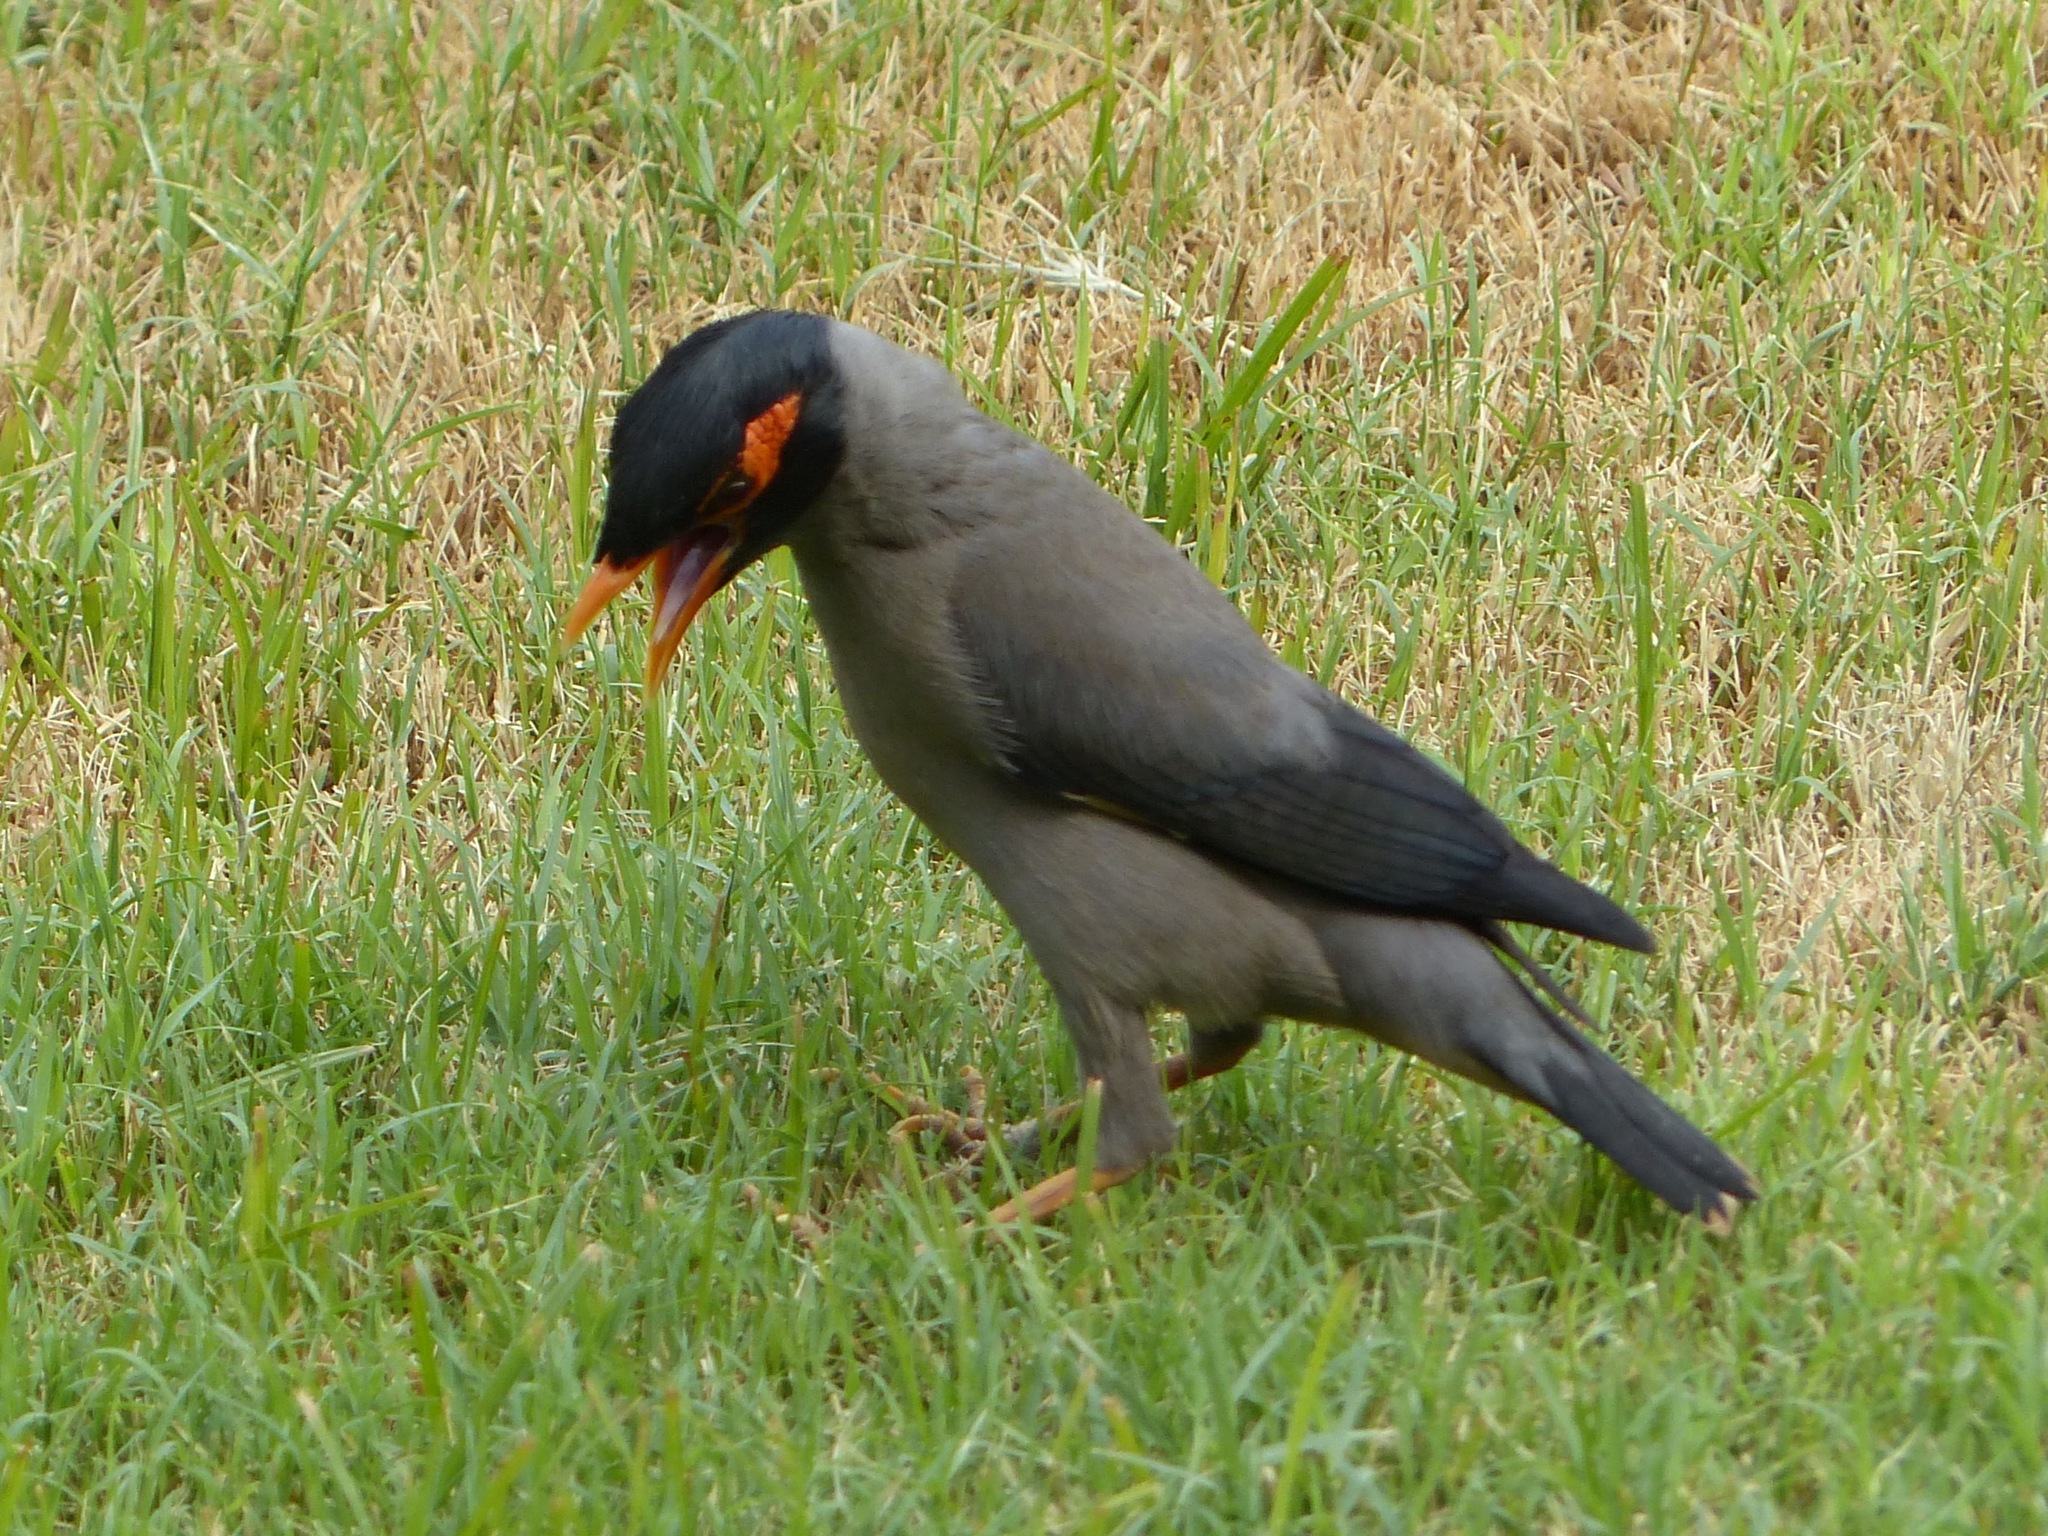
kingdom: Animalia
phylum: Chordata
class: Aves
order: Passeriformes
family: Sturnidae
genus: Acridotheres
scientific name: Acridotheres ginginianus
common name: Bank myna
